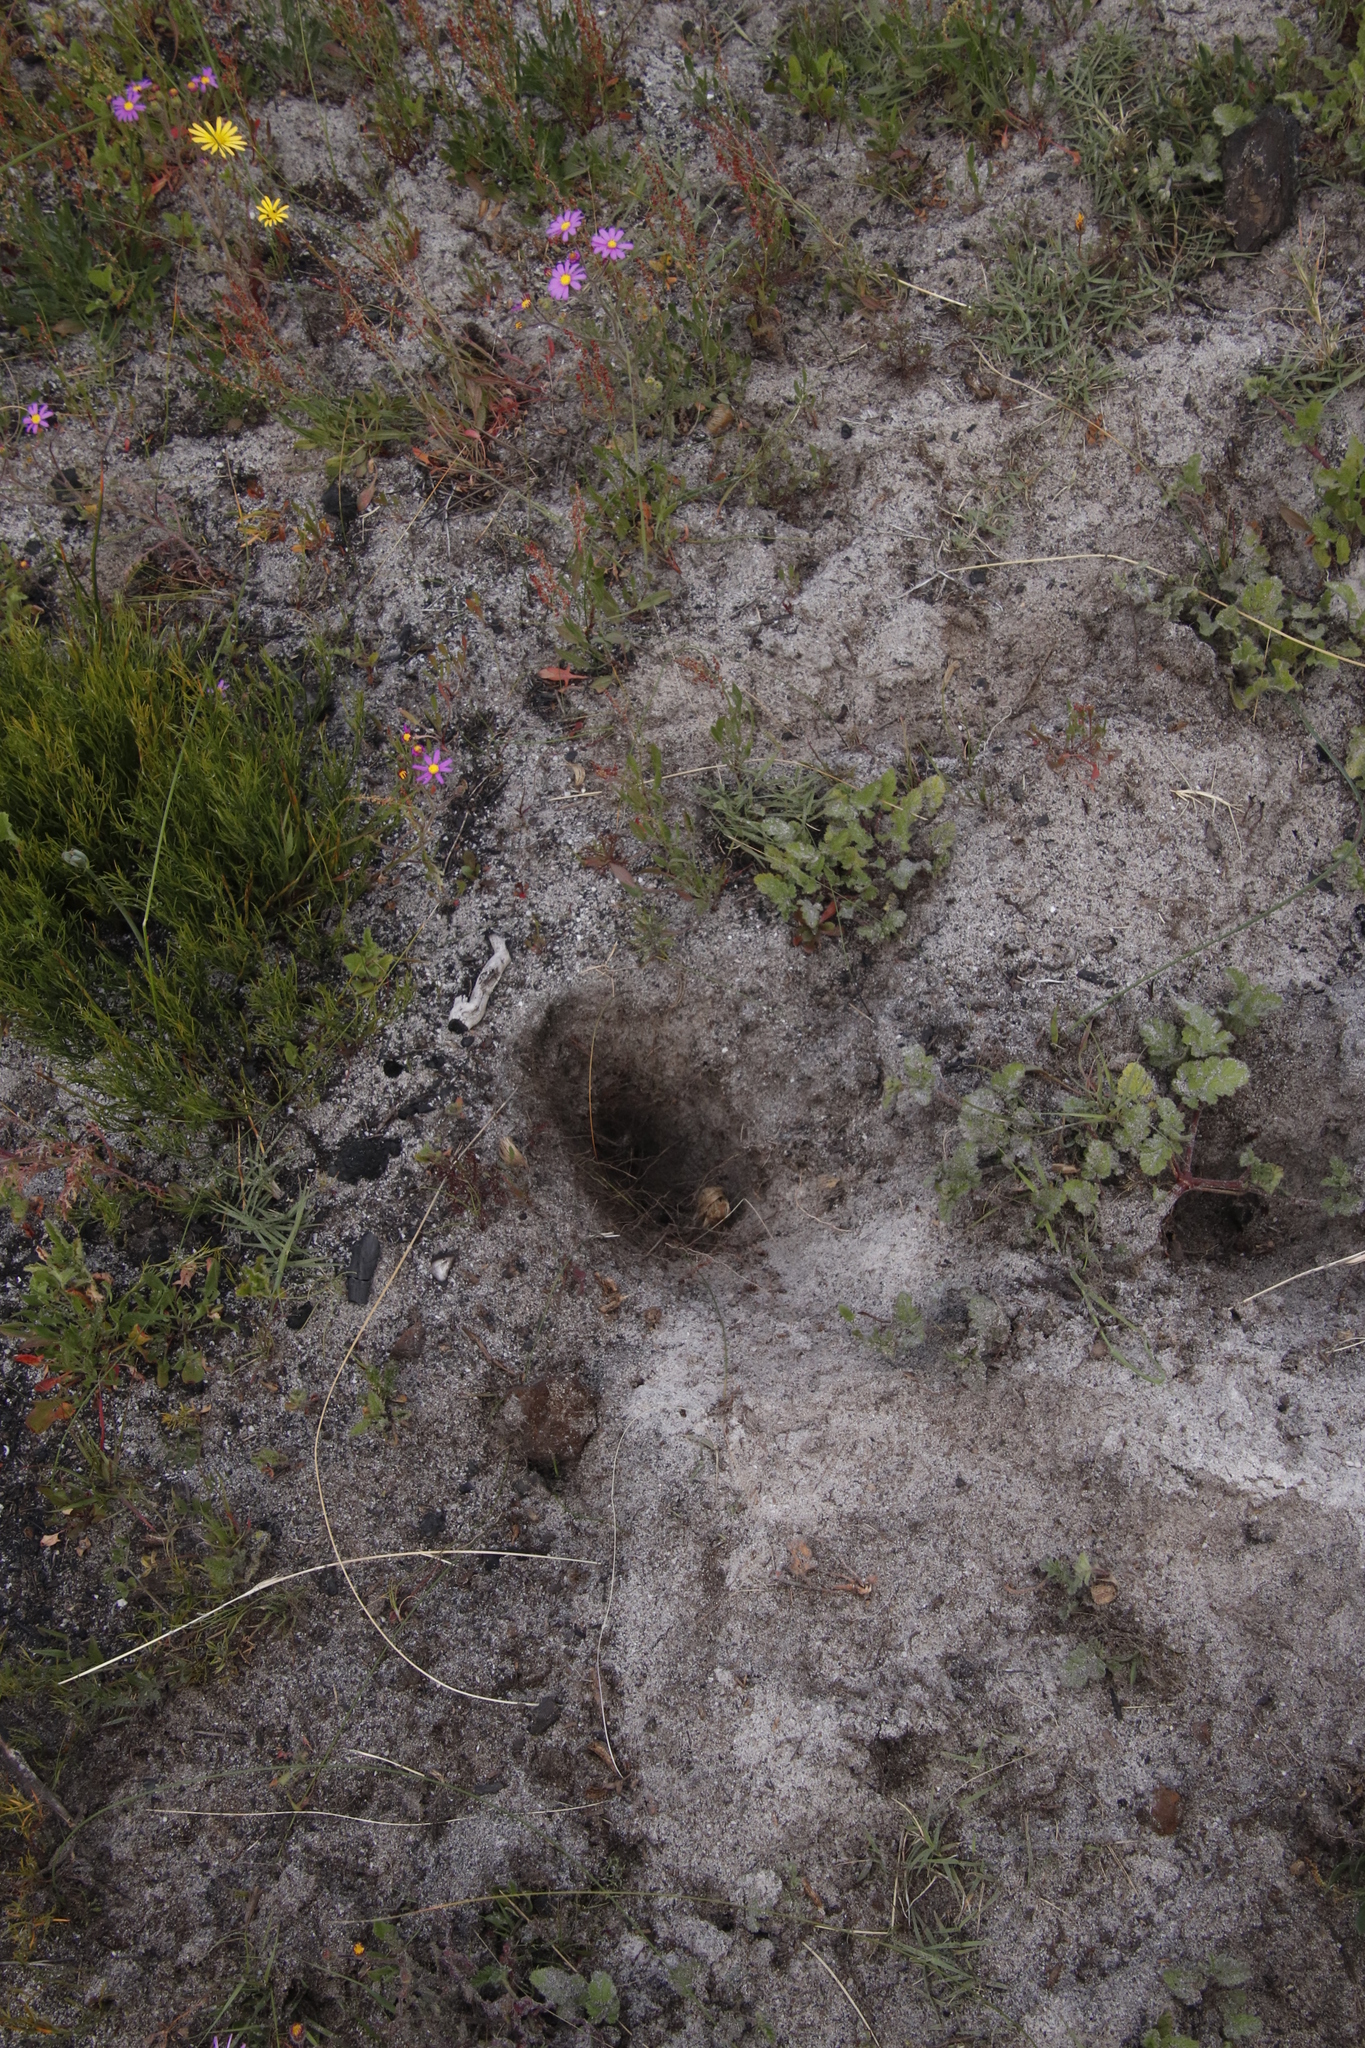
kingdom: Animalia
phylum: Chordata
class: Mammalia
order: Rodentia
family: Hystricidae
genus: Hystrix
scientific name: Hystrix africaeaustralis
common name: Cape porcupine
